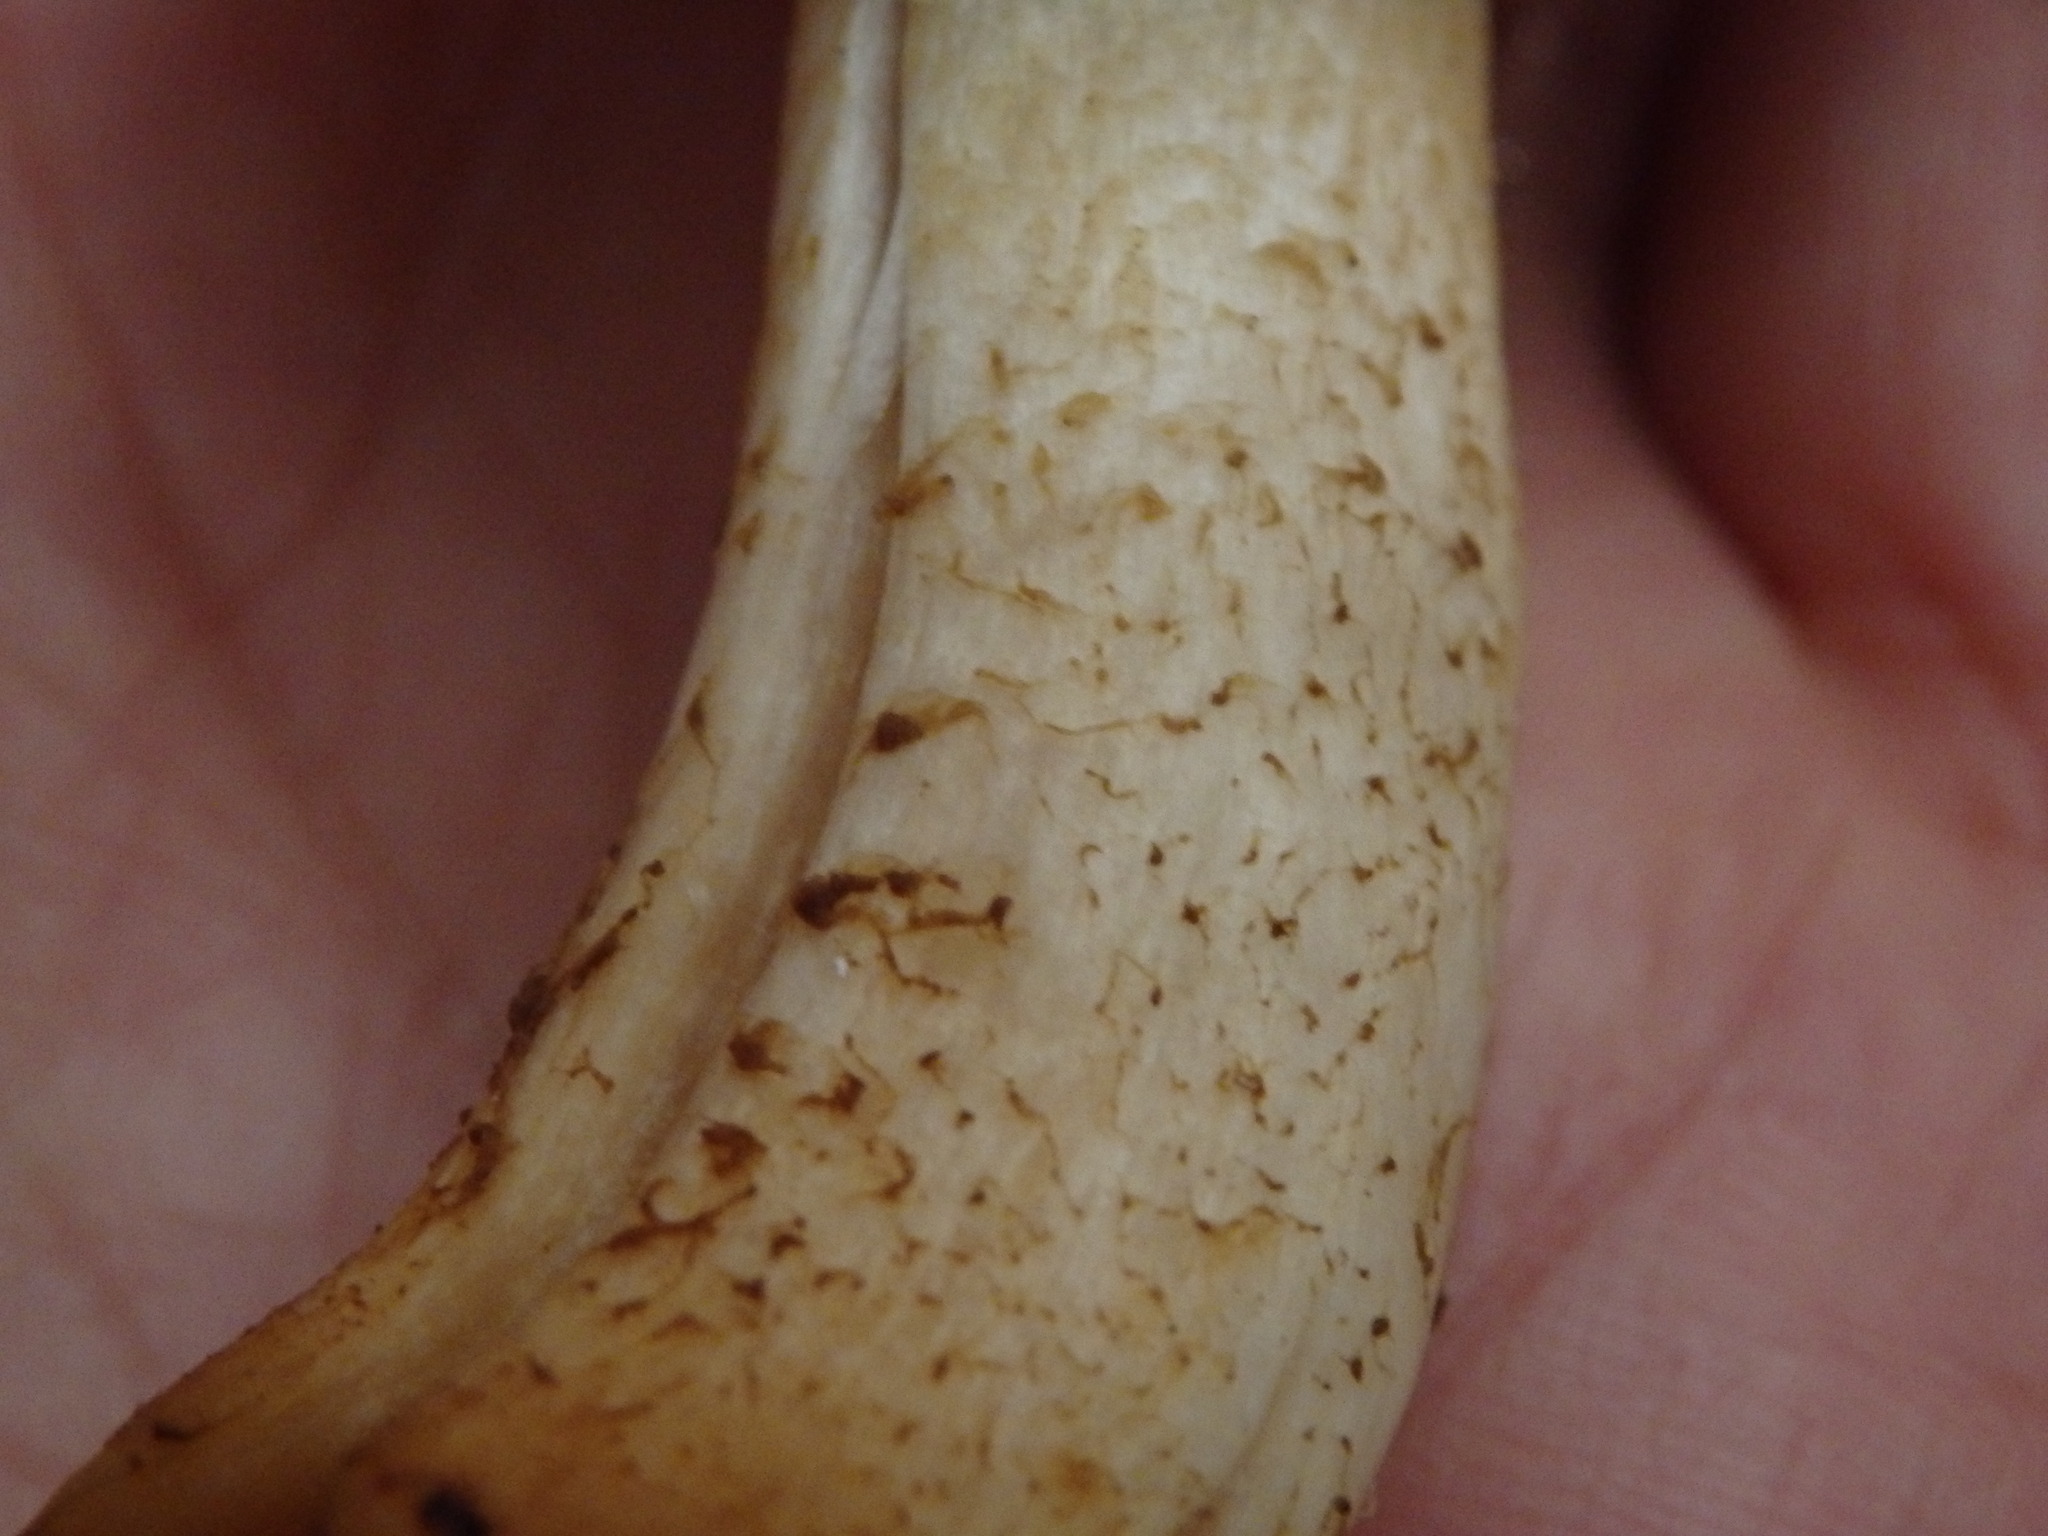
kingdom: Fungi
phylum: Basidiomycota
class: Agaricomycetes
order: Agaricales
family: Strophariaceae
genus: Hypholoma
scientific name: Hypholoma lateritium
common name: Brick caps
